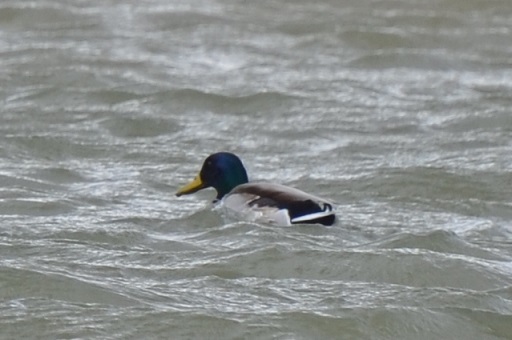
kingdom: Animalia
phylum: Chordata
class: Aves
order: Anseriformes
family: Anatidae
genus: Anas
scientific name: Anas platyrhynchos
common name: Mallard
